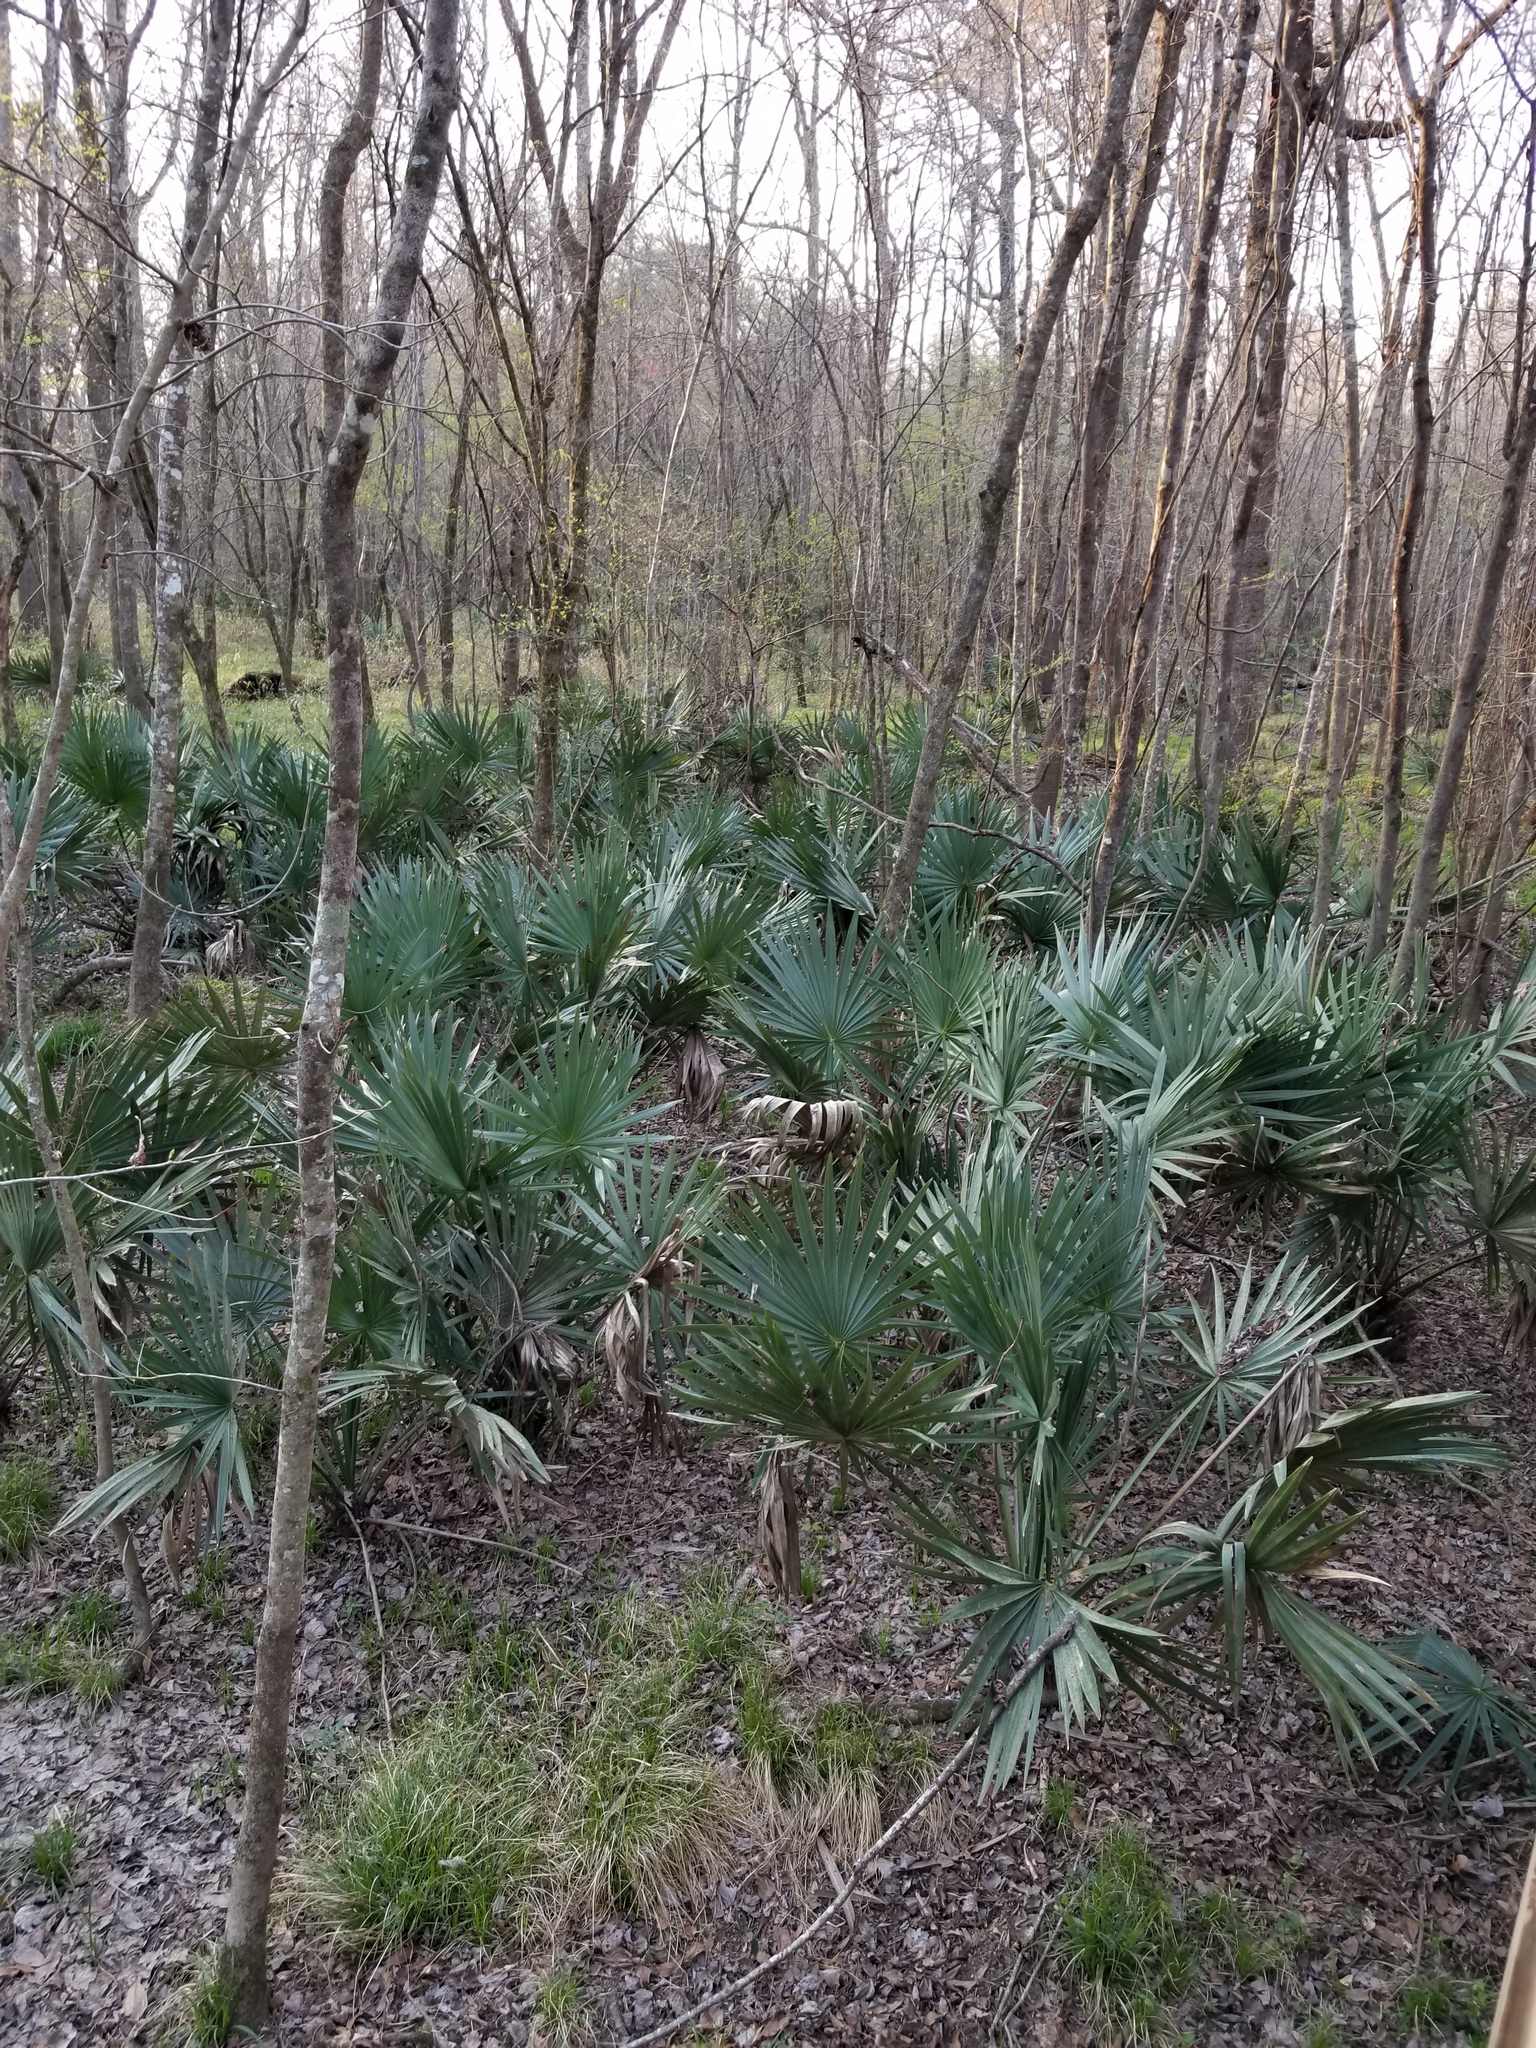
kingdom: Plantae
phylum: Tracheophyta
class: Liliopsida
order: Arecales
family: Arecaceae
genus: Sabal
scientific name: Sabal minor
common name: Dwarf palmetto
